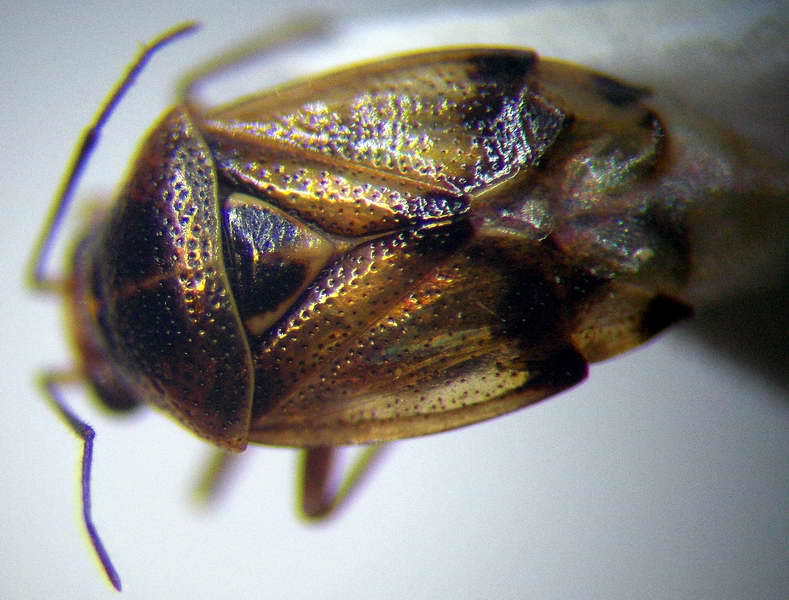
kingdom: Animalia
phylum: Arthropoda
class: Insecta
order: Hemiptera
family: Miridae
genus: Deraeocoris
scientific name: Deraeocoris serenus
